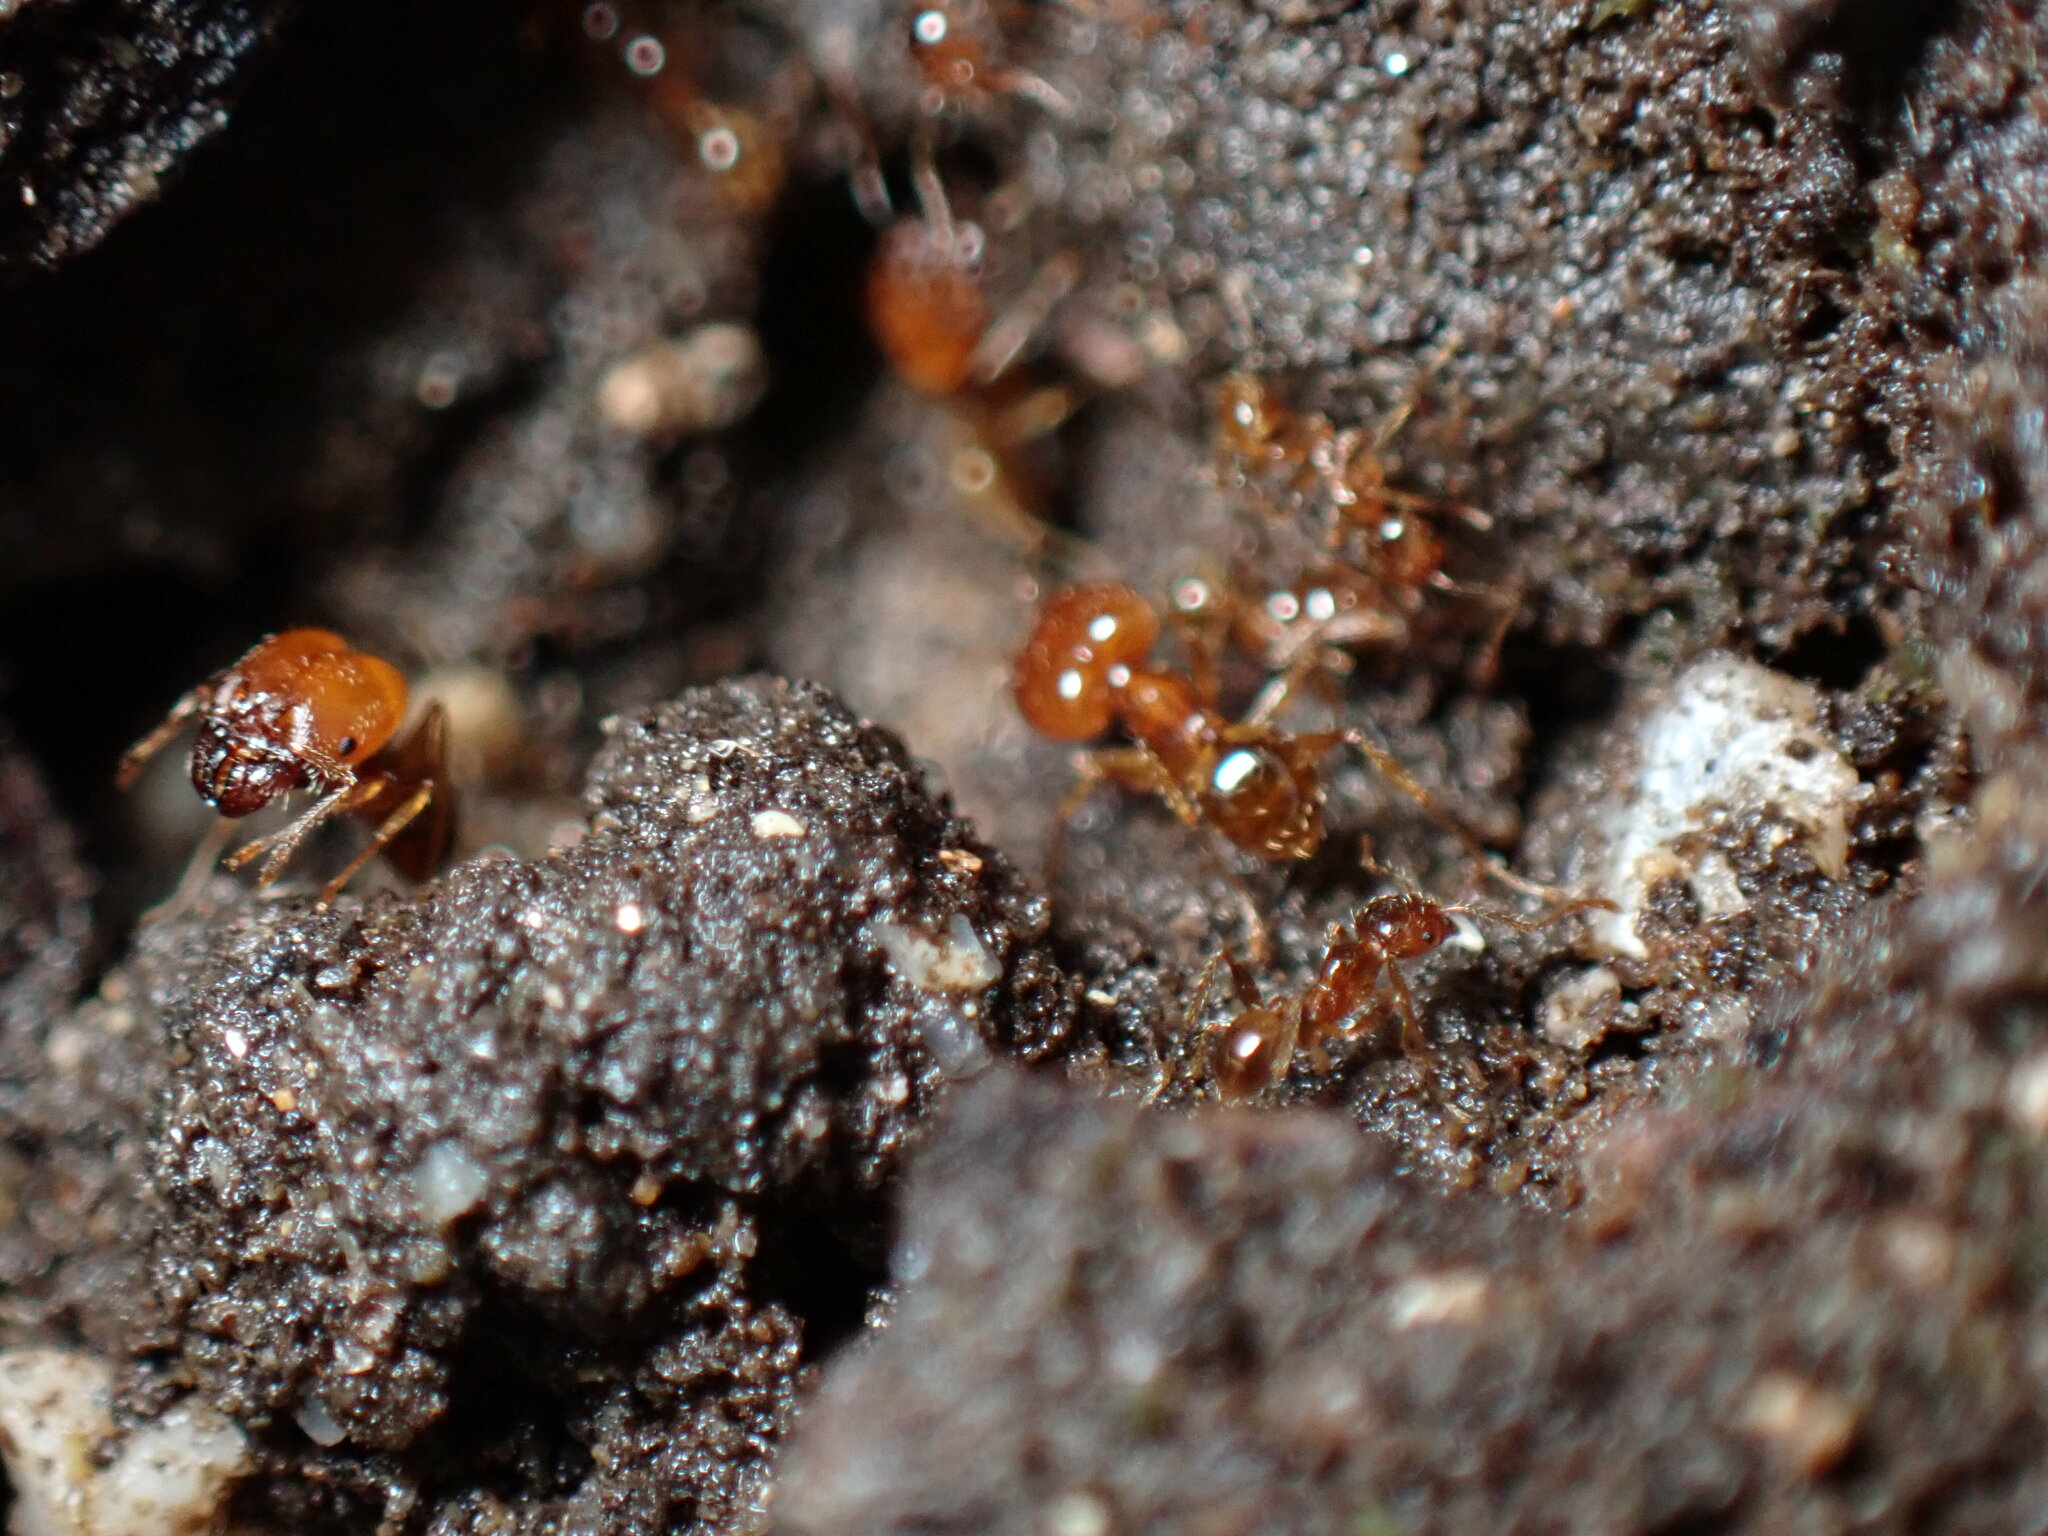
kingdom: Animalia
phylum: Arthropoda
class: Insecta
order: Hymenoptera
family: Formicidae
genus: Pheidole
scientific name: Pheidole pallidula
